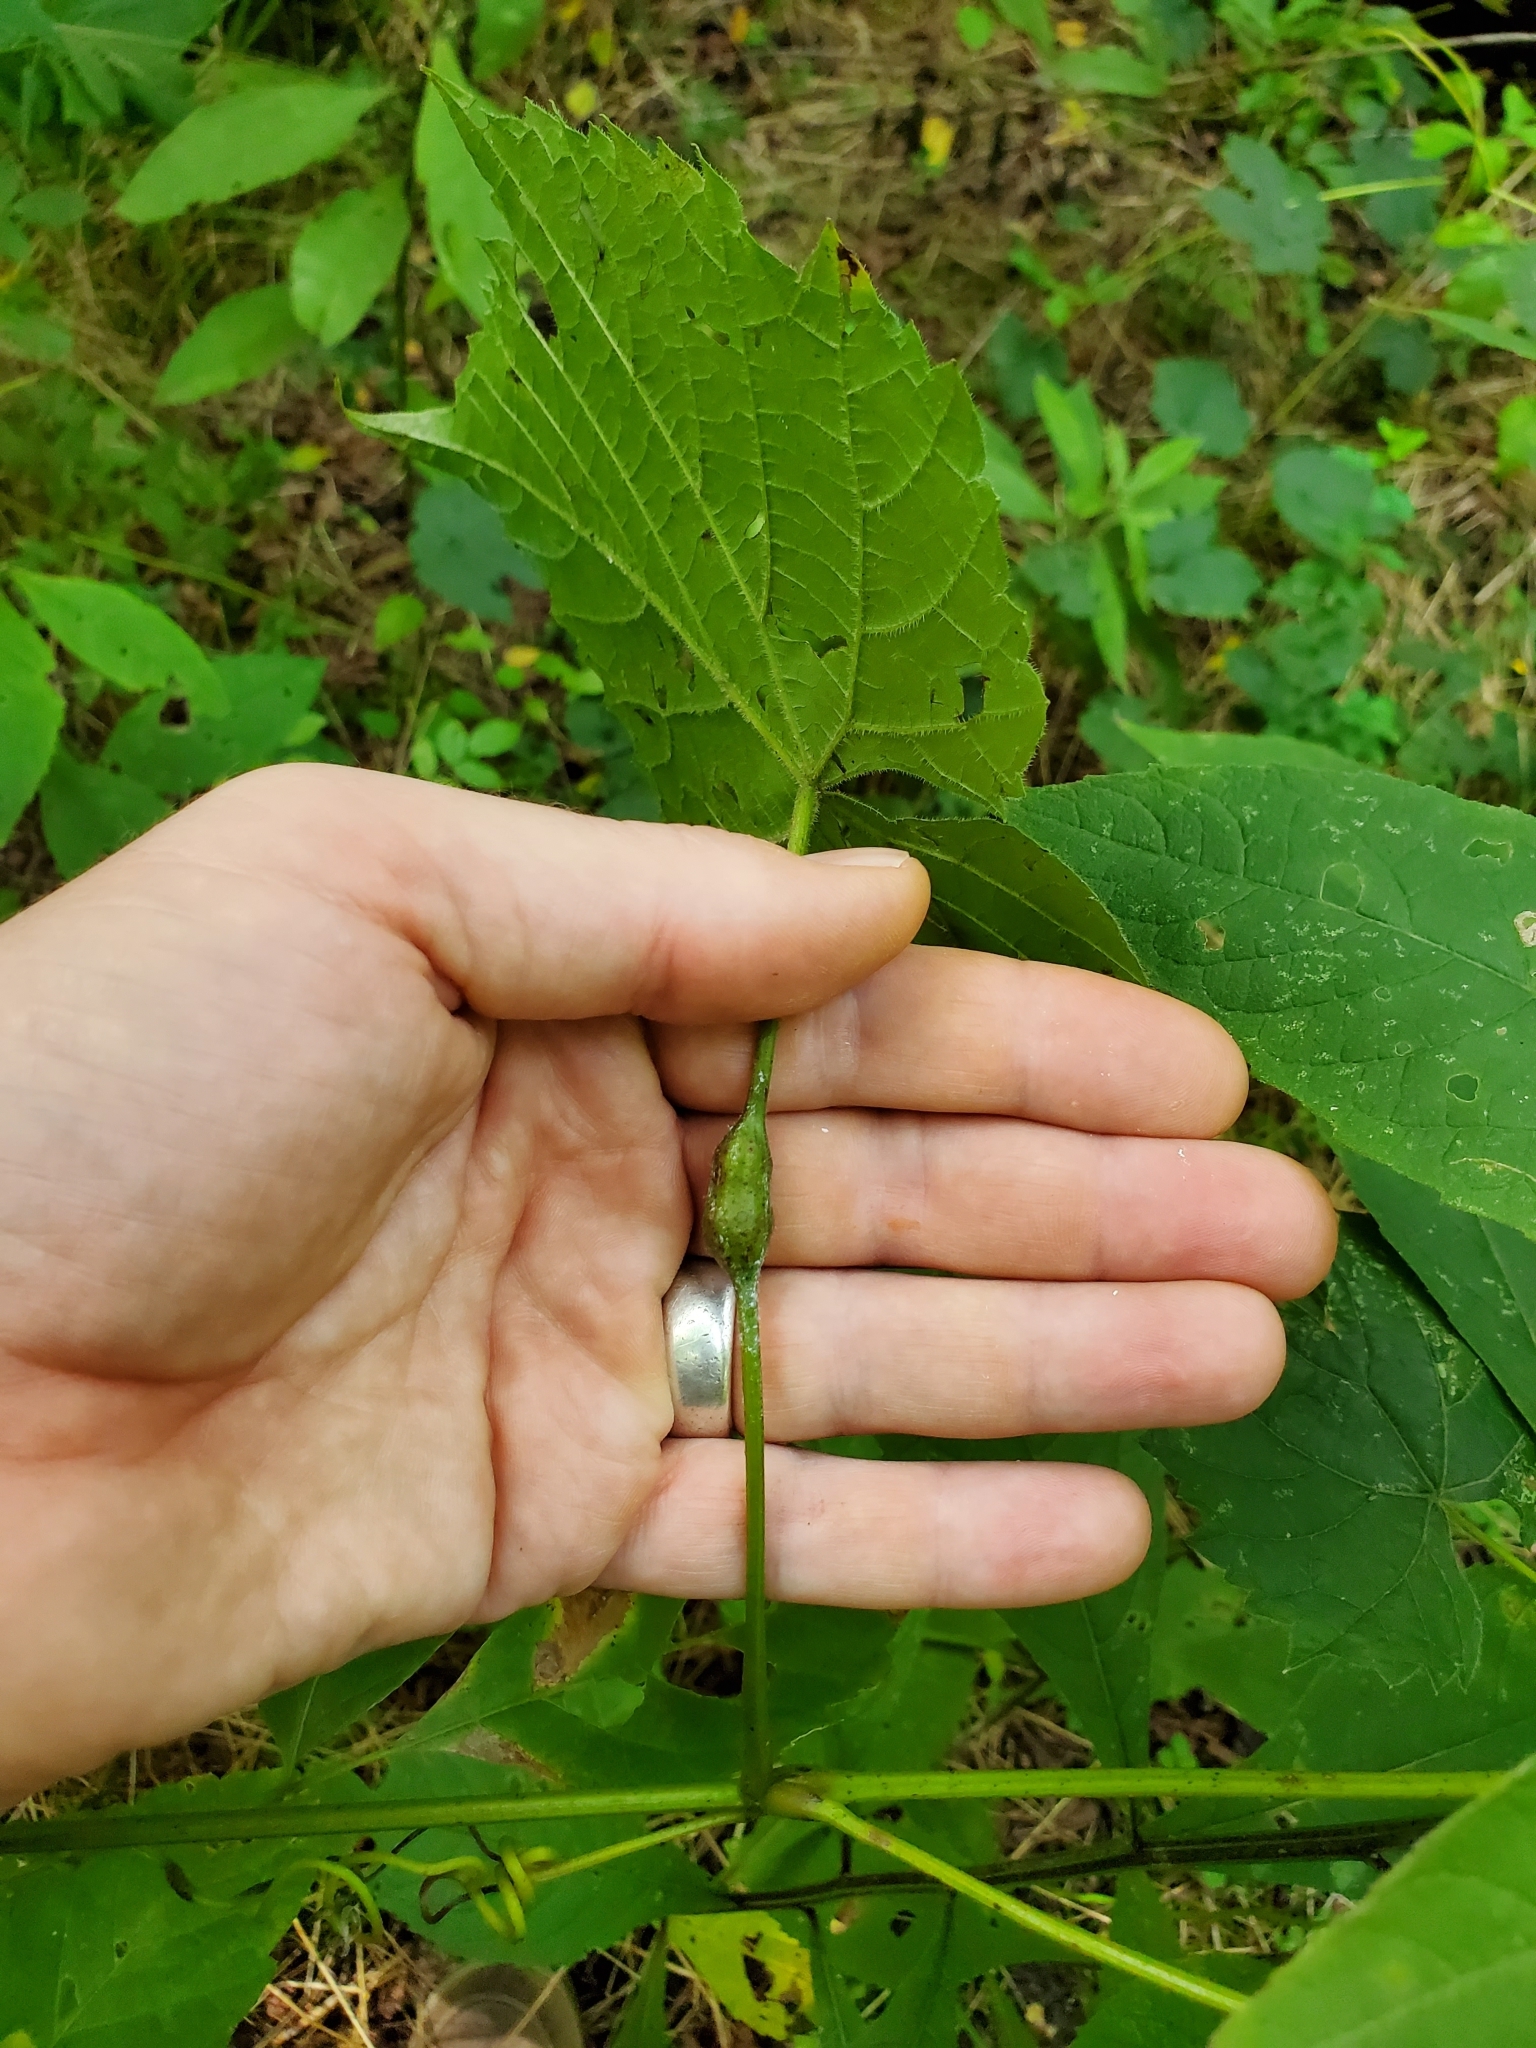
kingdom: Animalia
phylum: Arthropoda
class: Insecta
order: Diptera
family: Cecidomyiidae
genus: Neolasioptera
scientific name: Neolasioptera vitinea
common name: Grape leaf petiole gall
